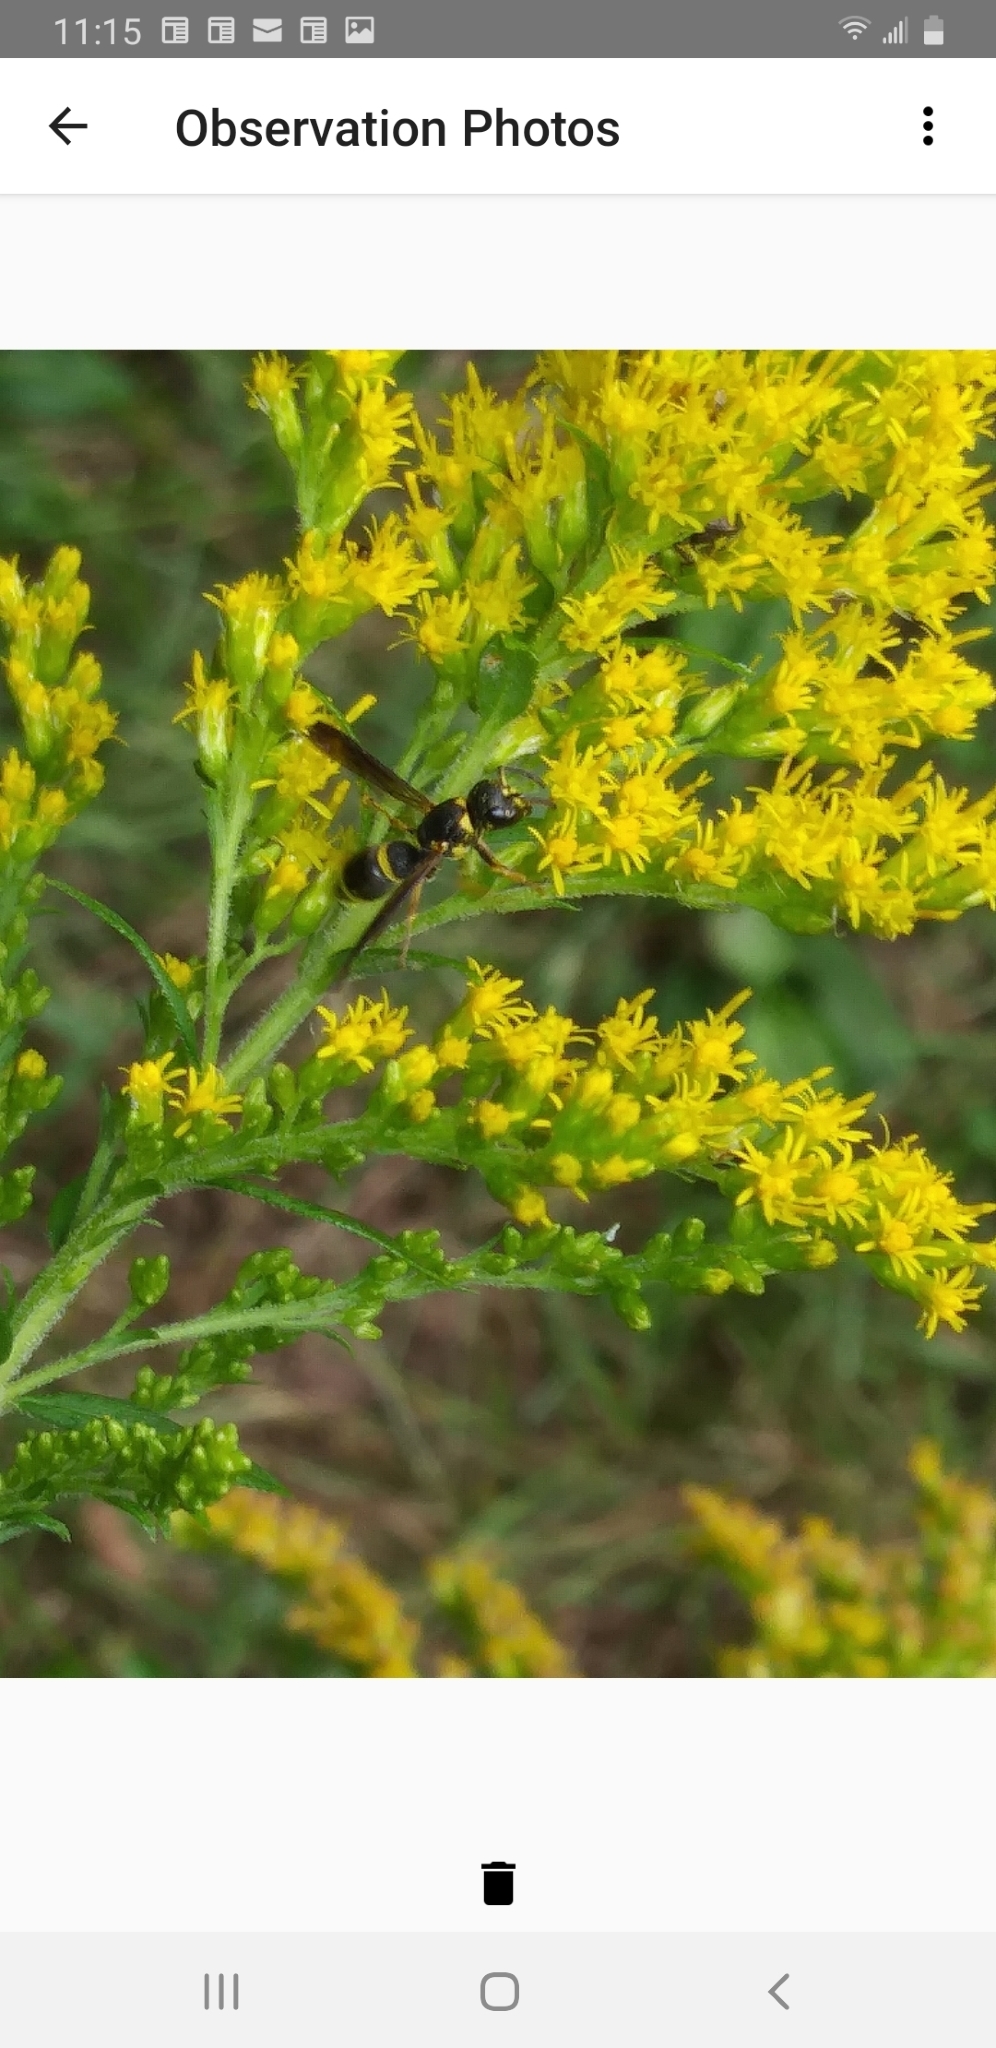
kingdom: Animalia
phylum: Arthropoda
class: Insecta
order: Hymenoptera
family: Eumenidae
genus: Parancistrocerus
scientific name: Parancistrocerus perennis
